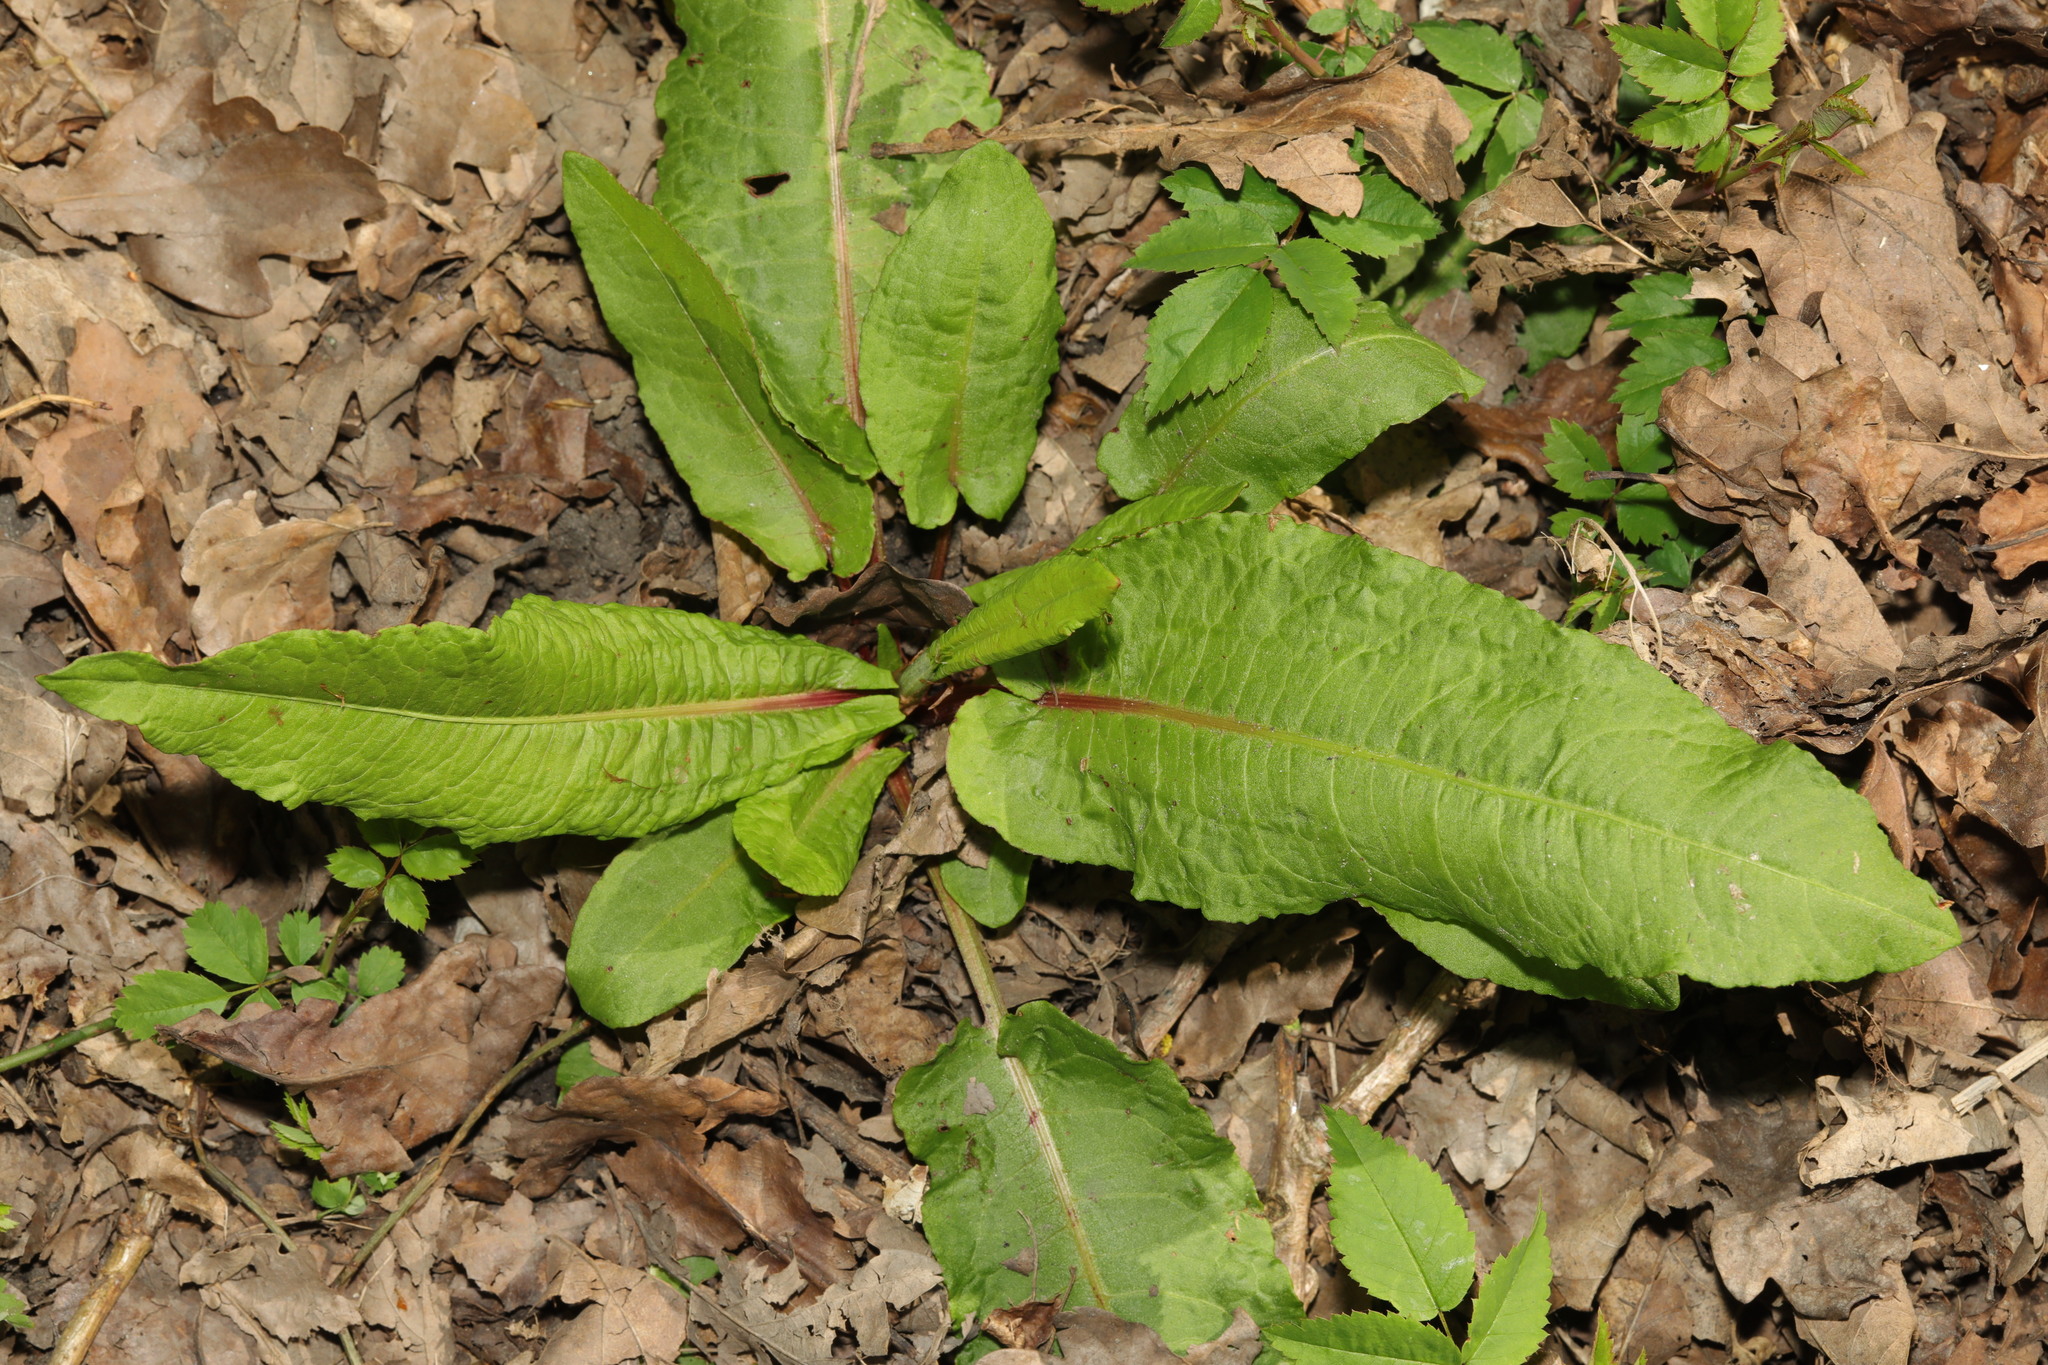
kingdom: Plantae
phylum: Tracheophyta
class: Magnoliopsida
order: Caryophyllales
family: Polygonaceae
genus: Rumex
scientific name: Rumex obtusifolius
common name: Bitter dock
